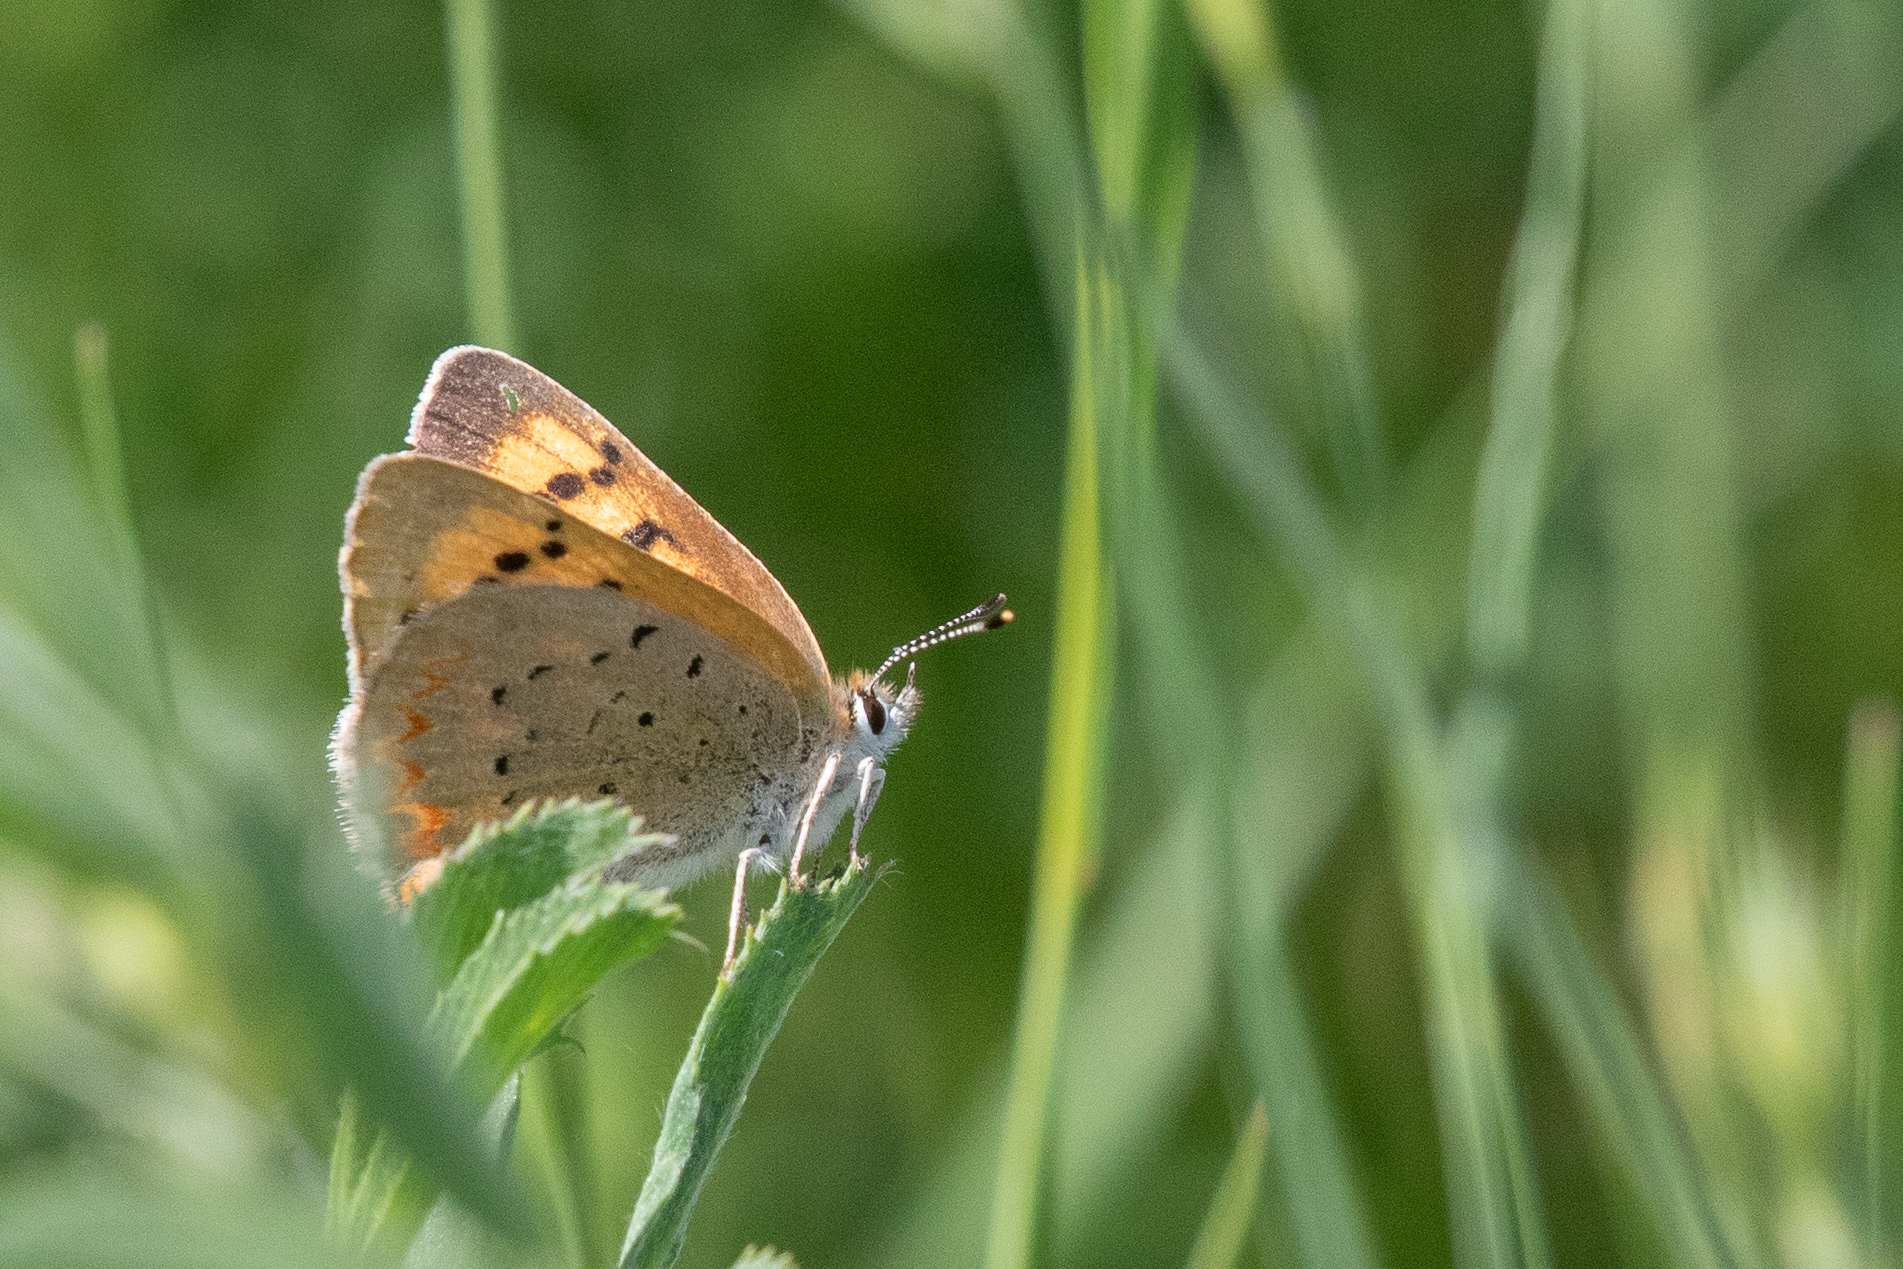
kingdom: Animalia
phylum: Arthropoda
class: Insecta
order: Lepidoptera
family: Lycaenidae
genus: Tharsalea
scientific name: Tharsalea helloides
